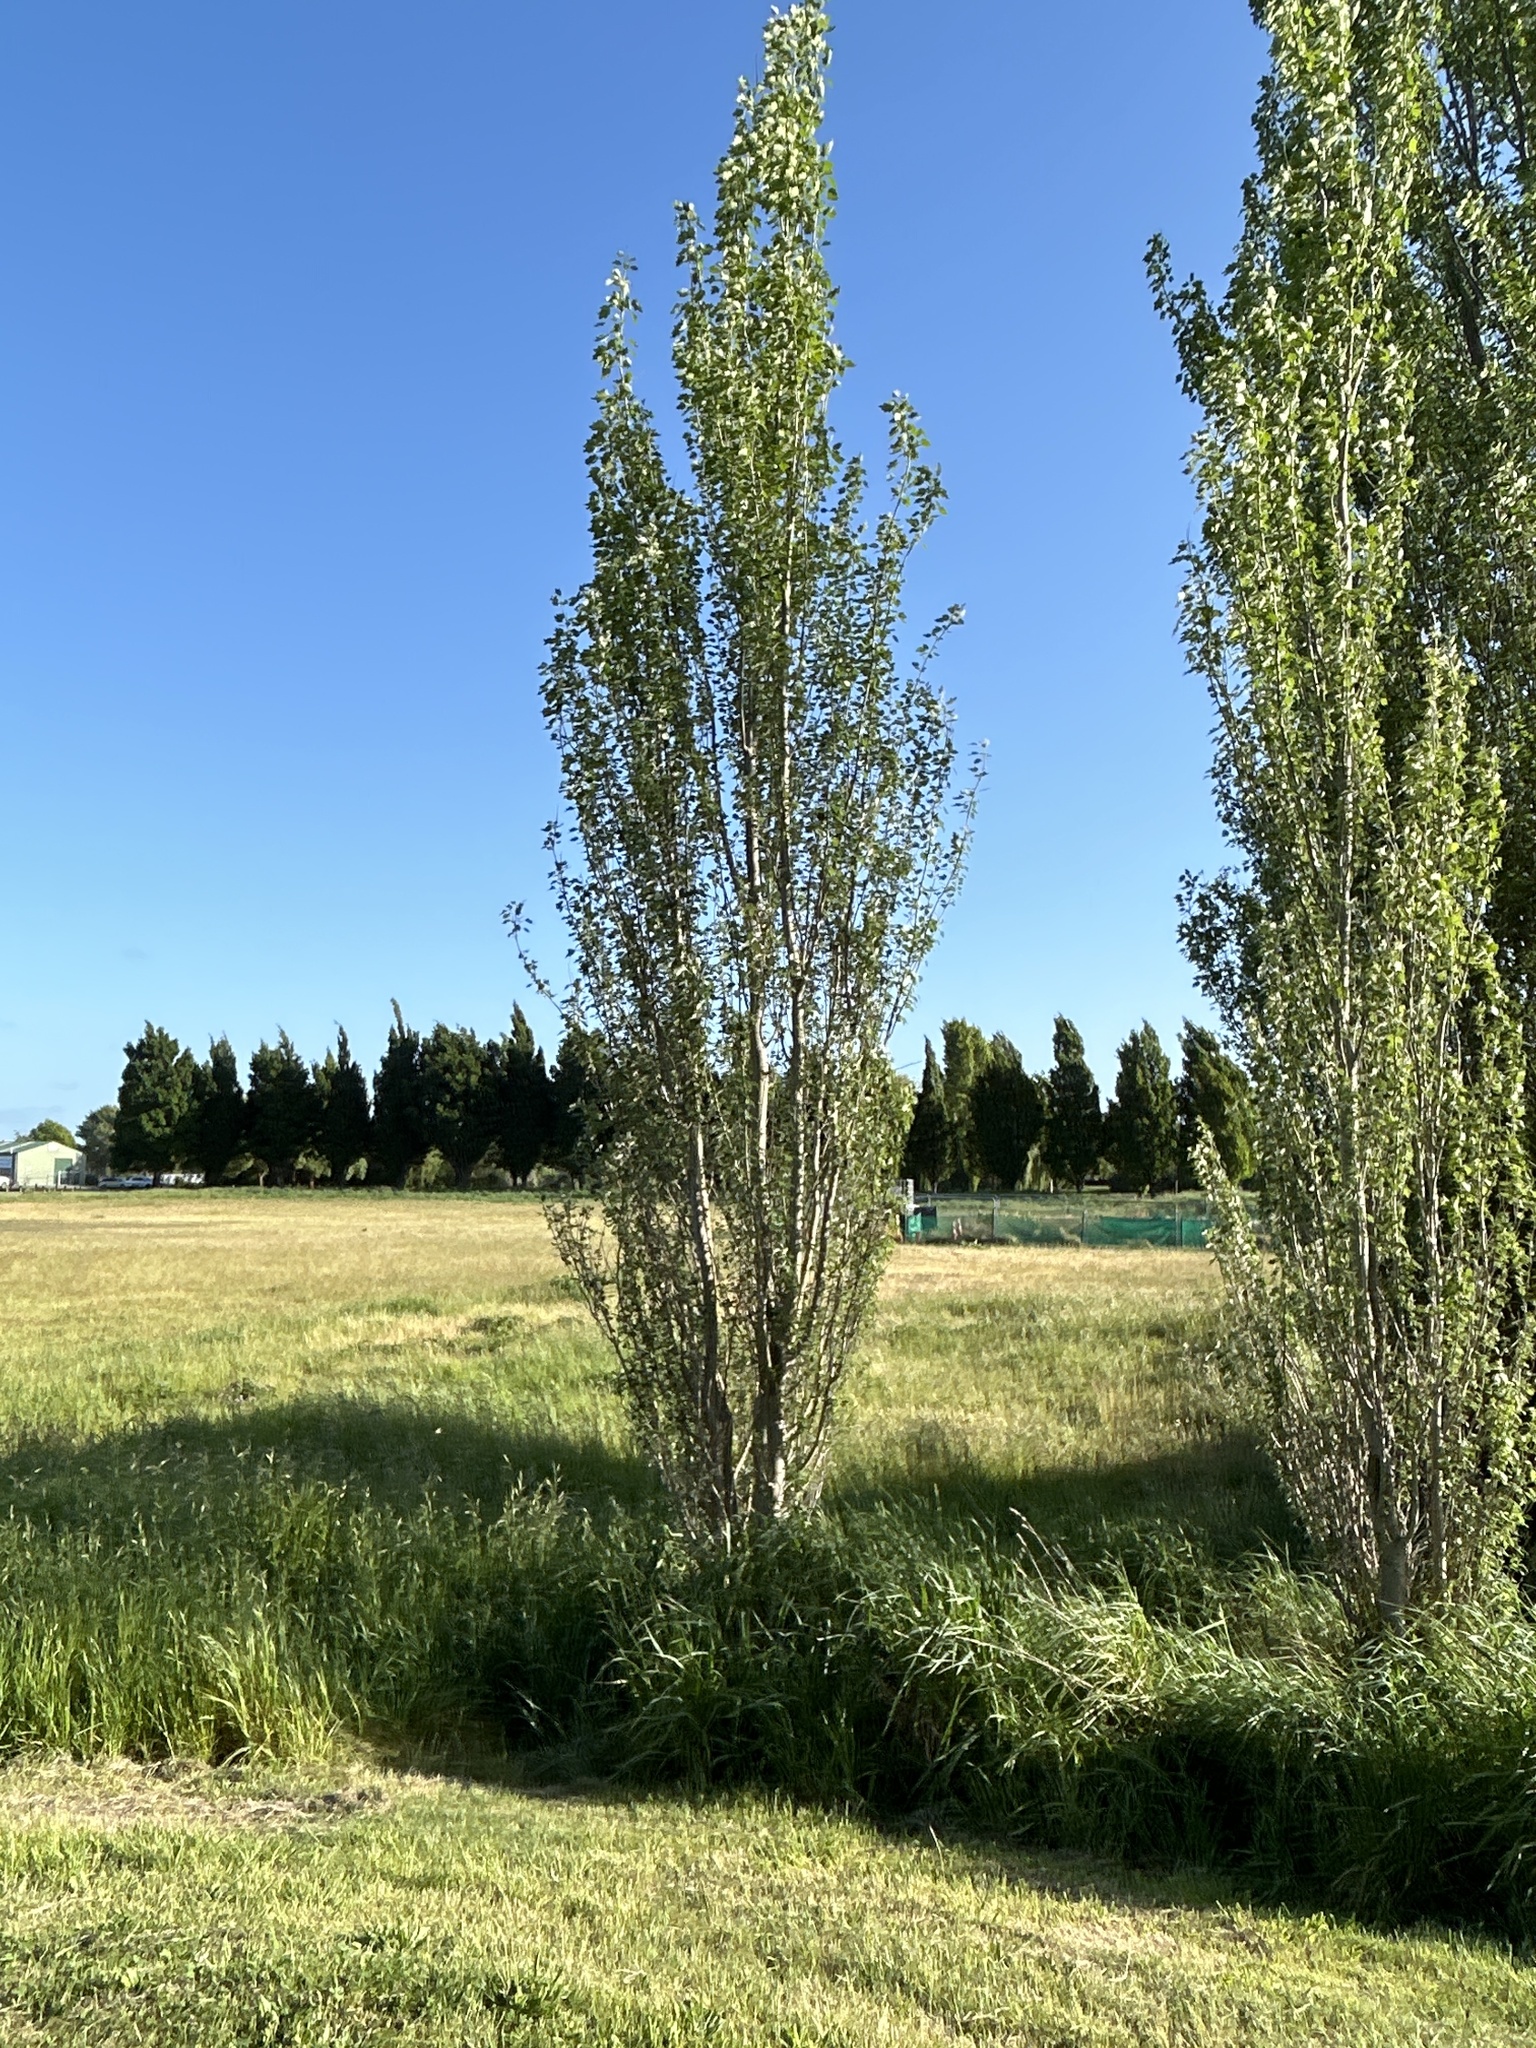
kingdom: Plantae
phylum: Tracheophyta
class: Magnoliopsida
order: Malpighiales
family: Salicaceae
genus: Populus
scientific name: Populus alba
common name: White poplar
